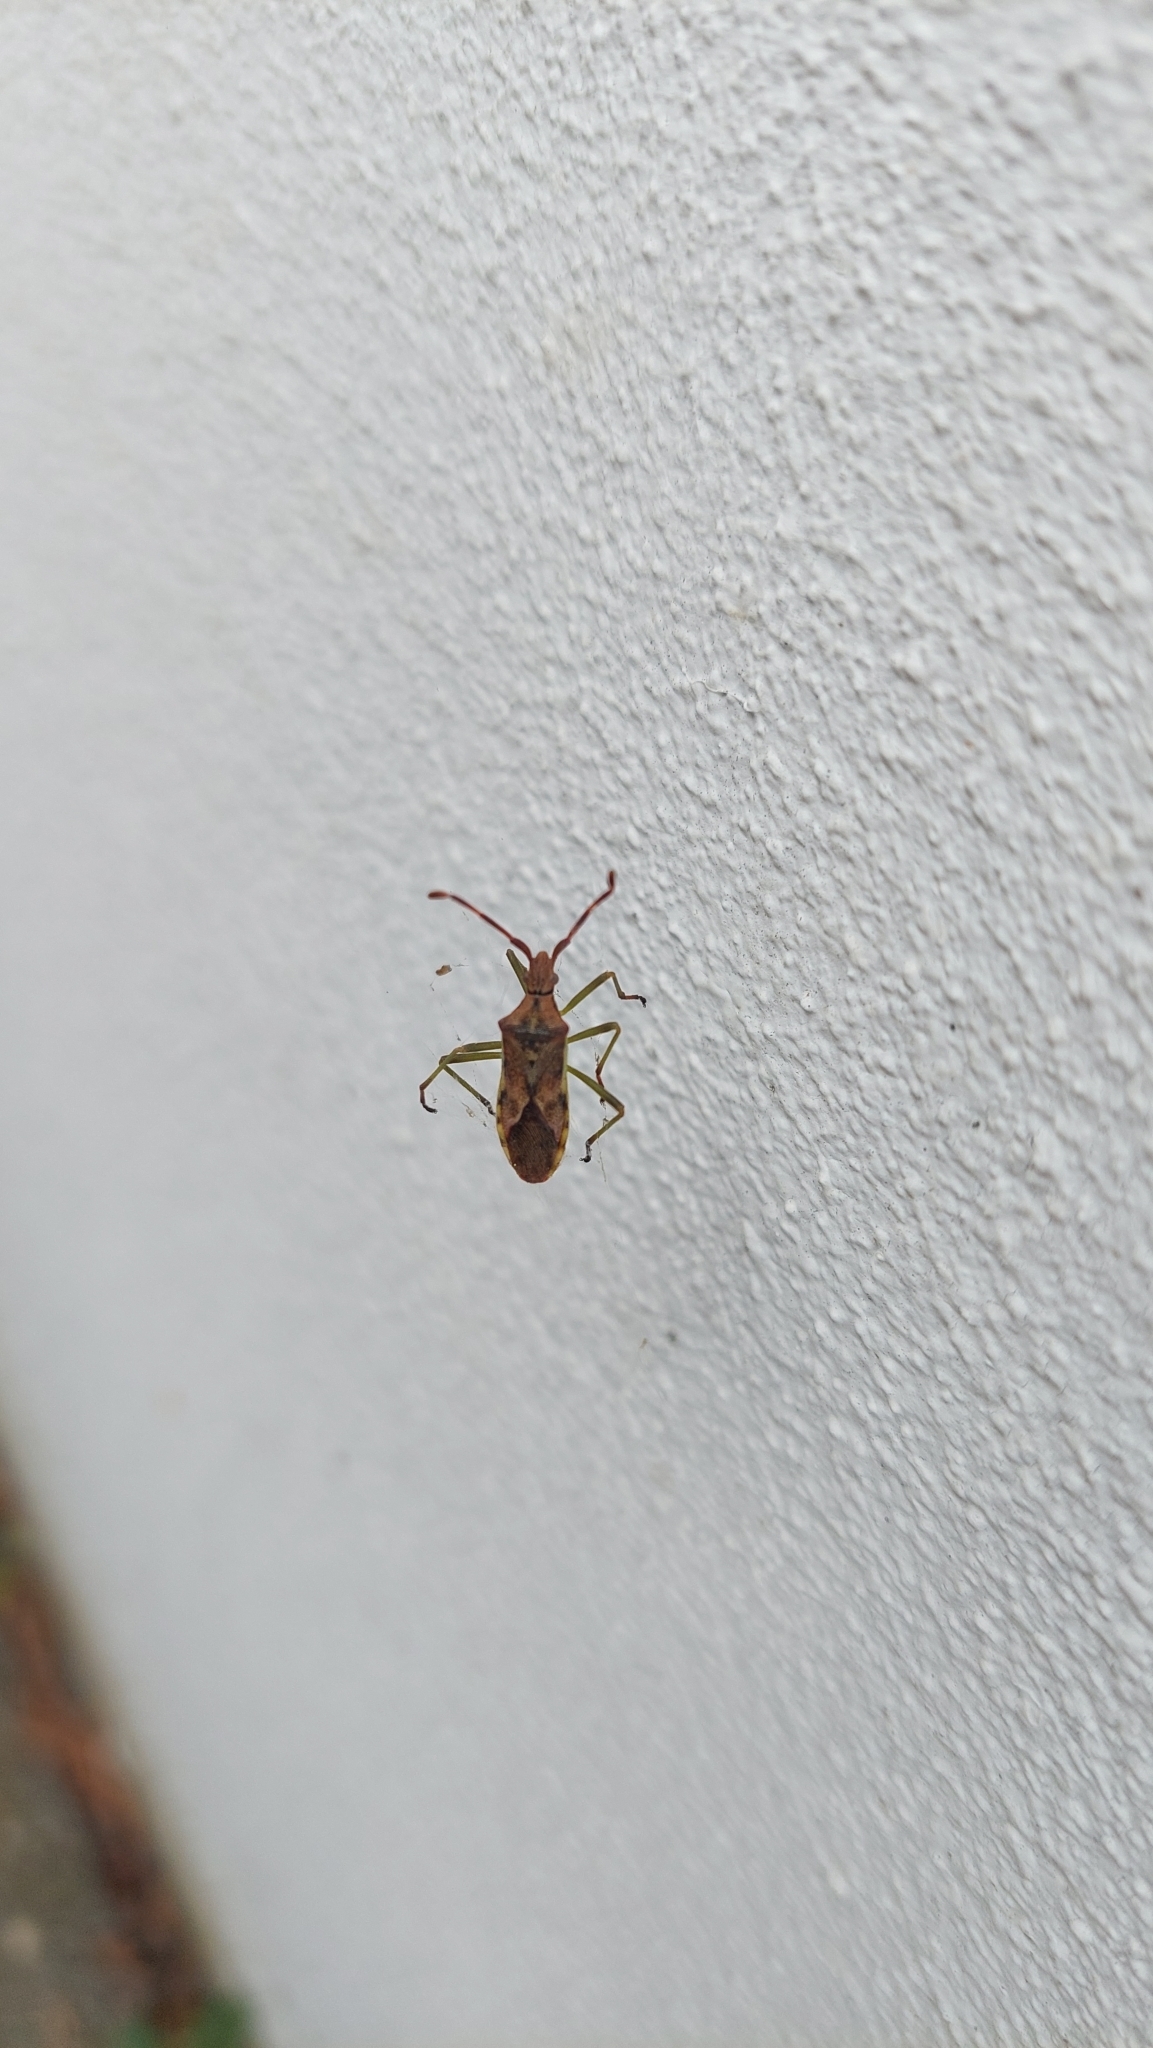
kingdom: Animalia
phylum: Arthropoda
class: Insecta
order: Hemiptera
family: Coreidae
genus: Gonocerus
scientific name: Gonocerus juniperi
